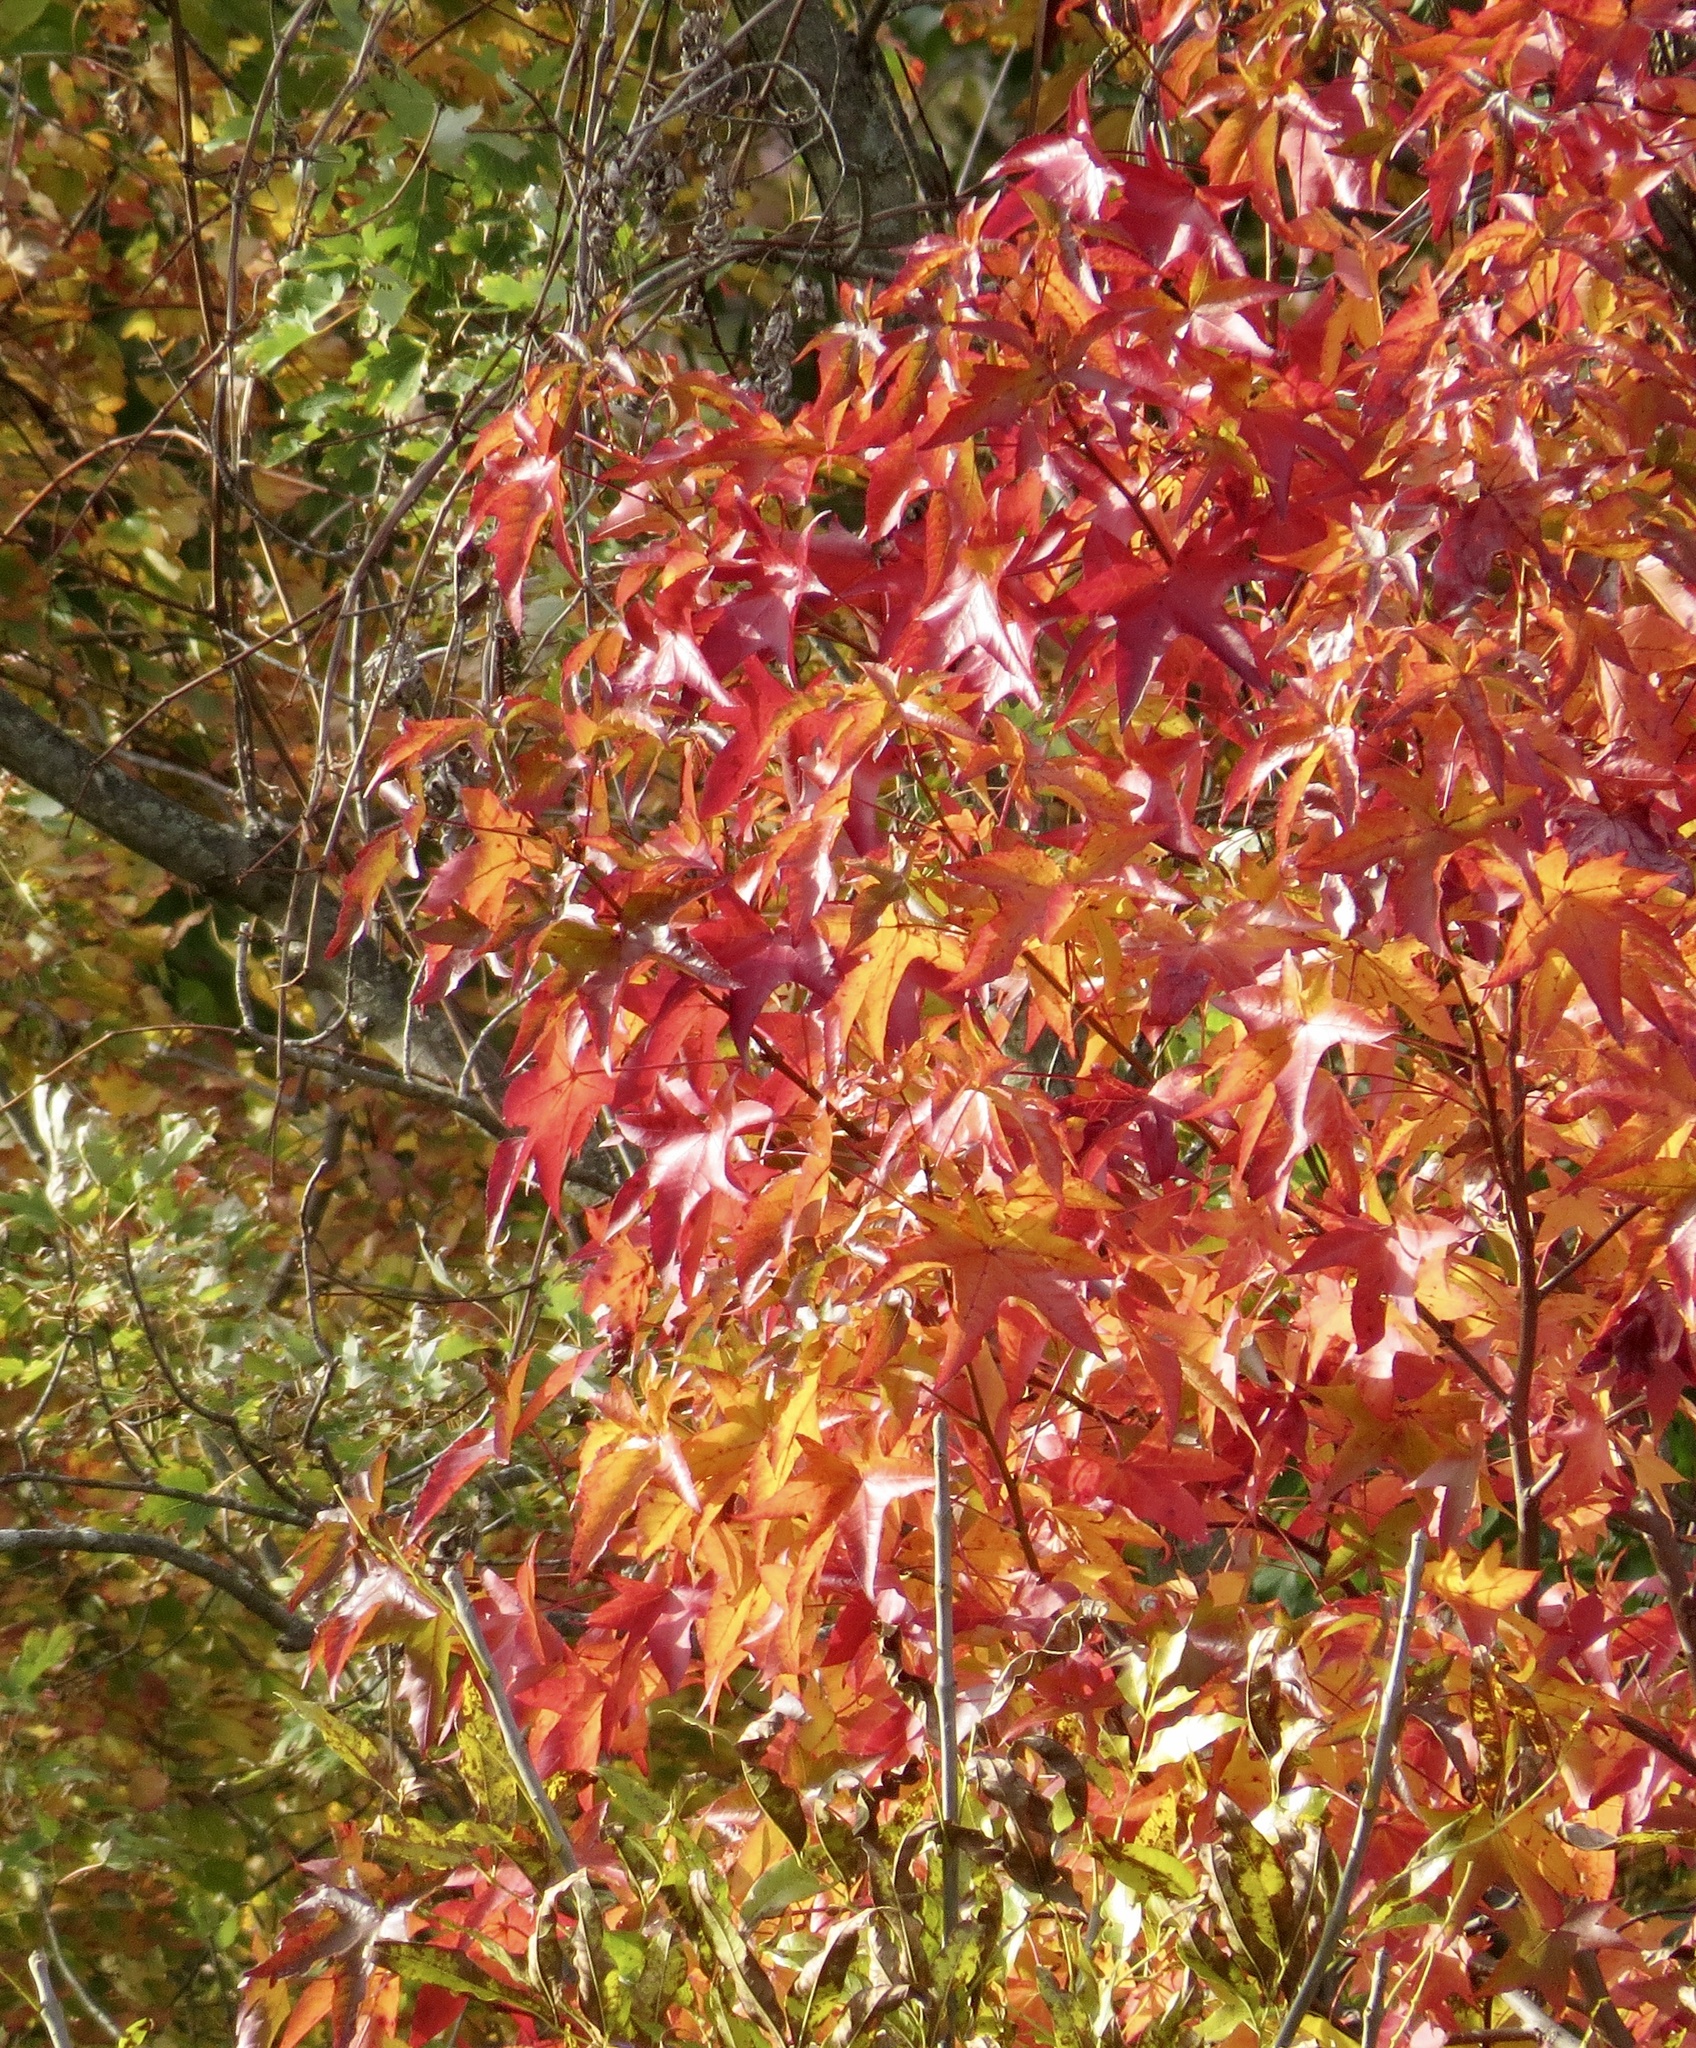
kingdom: Plantae
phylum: Tracheophyta
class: Magnoliopsida
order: Saxifragales
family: Altingiaceae
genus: Liquidambar
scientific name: Liquidambar styraciflua
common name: Sweet gum
